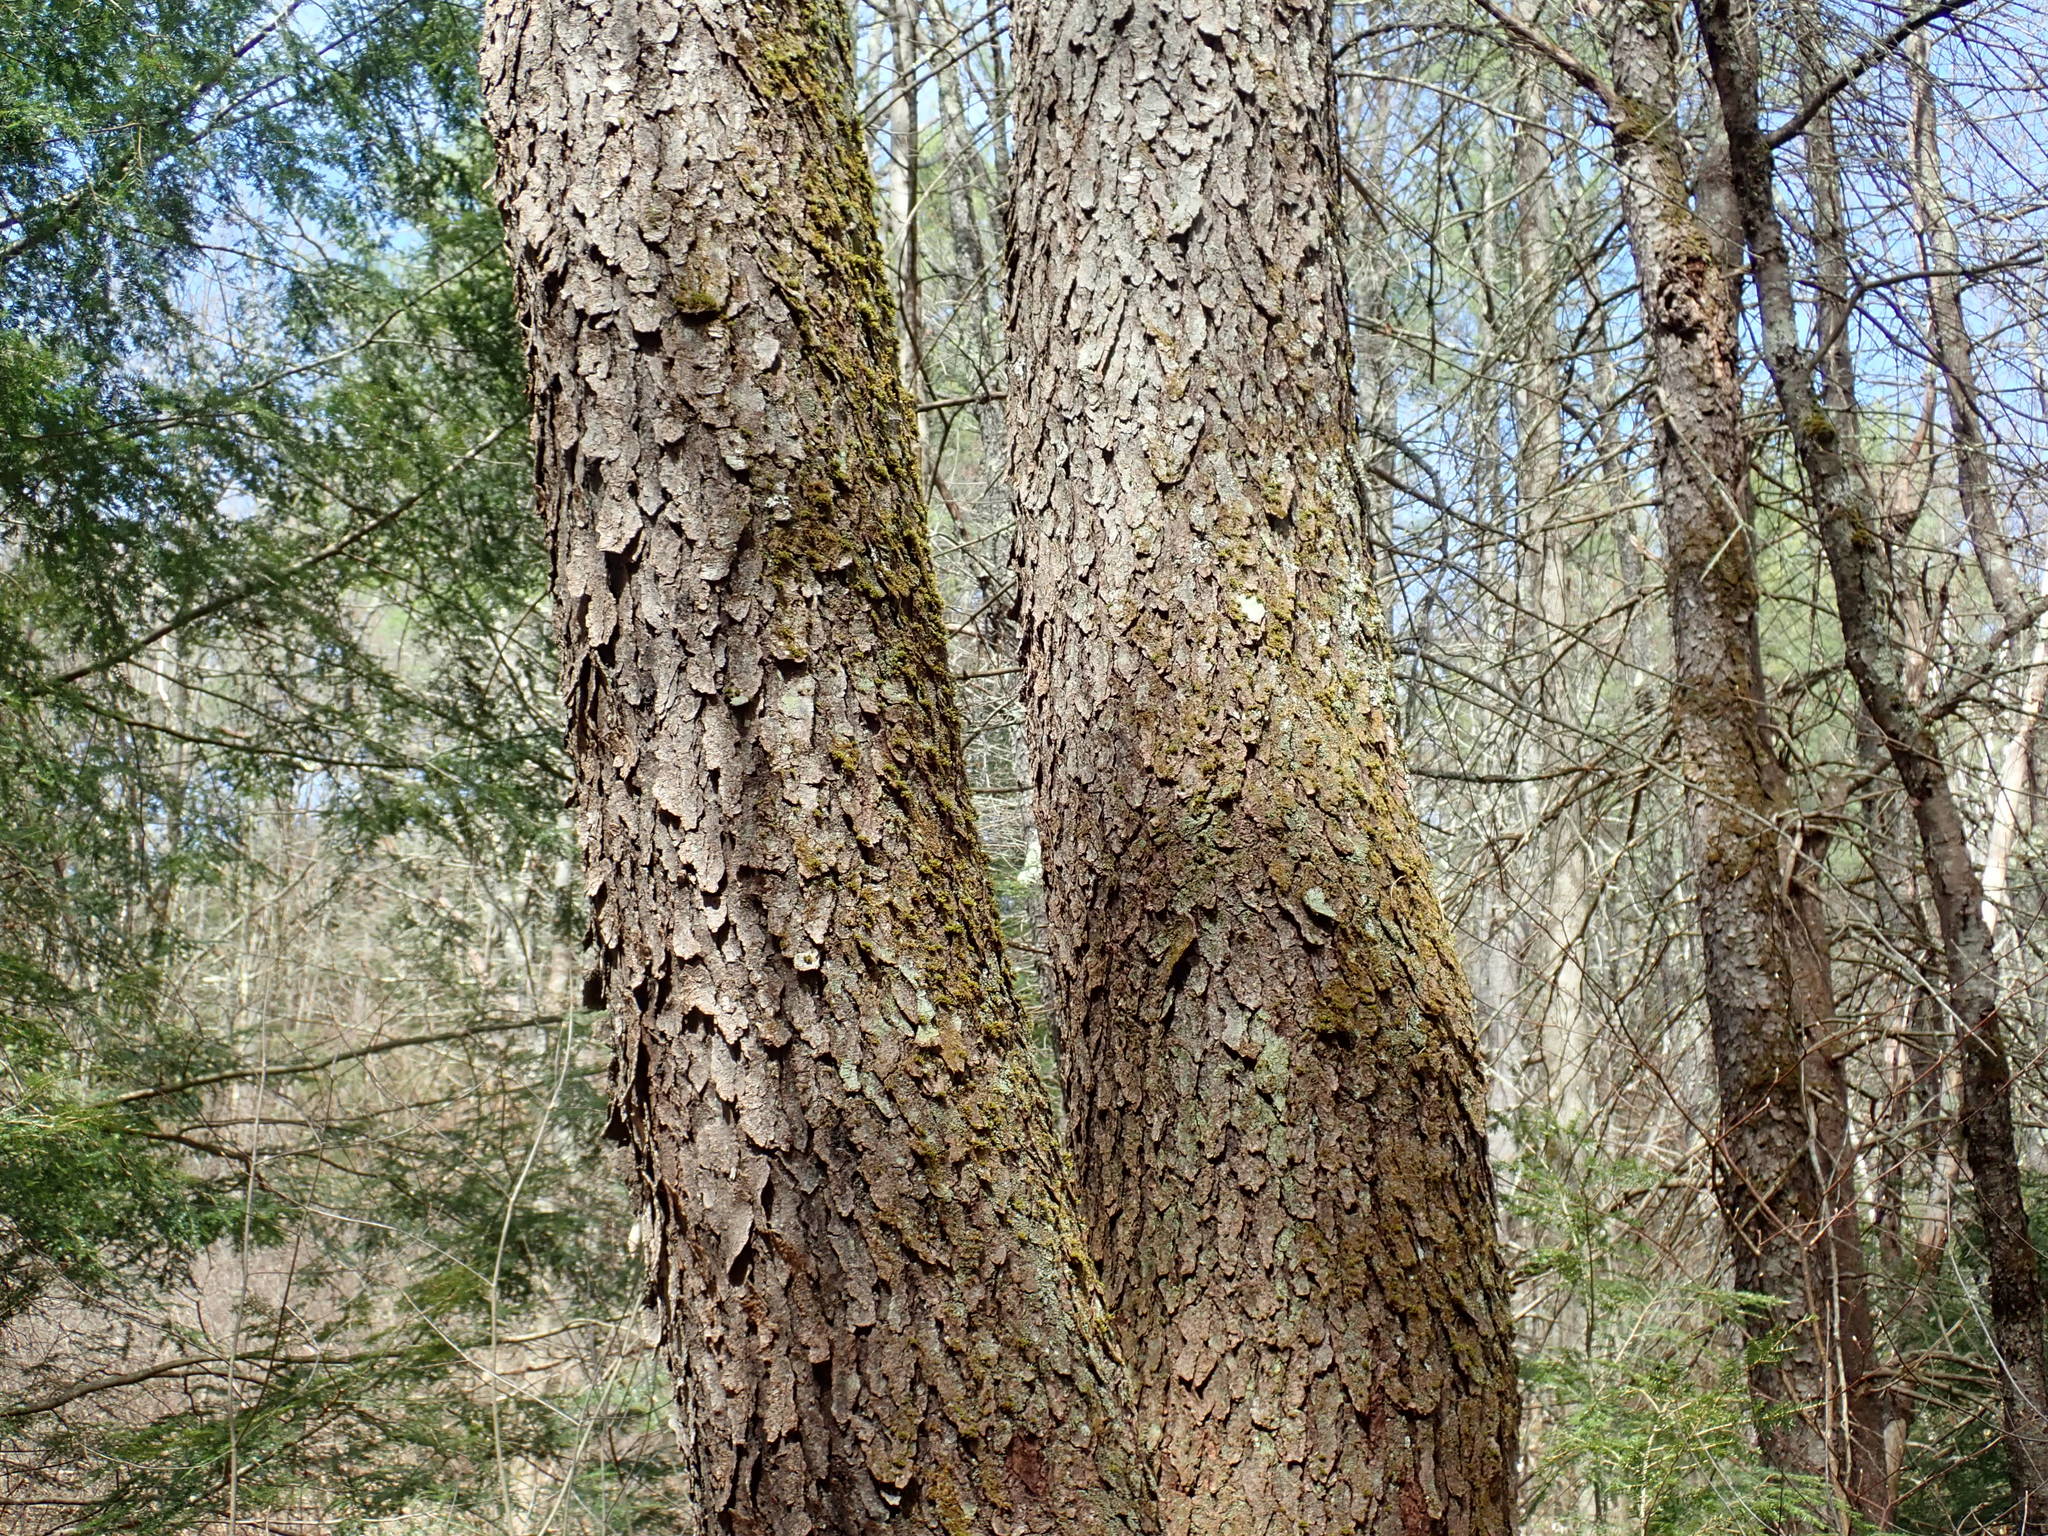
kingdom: Plantae
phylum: Tracheophyta
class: Magnoliopsida
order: Rosales
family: Rosaceae
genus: Prunus
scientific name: Prunus serotina
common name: Black cherry
